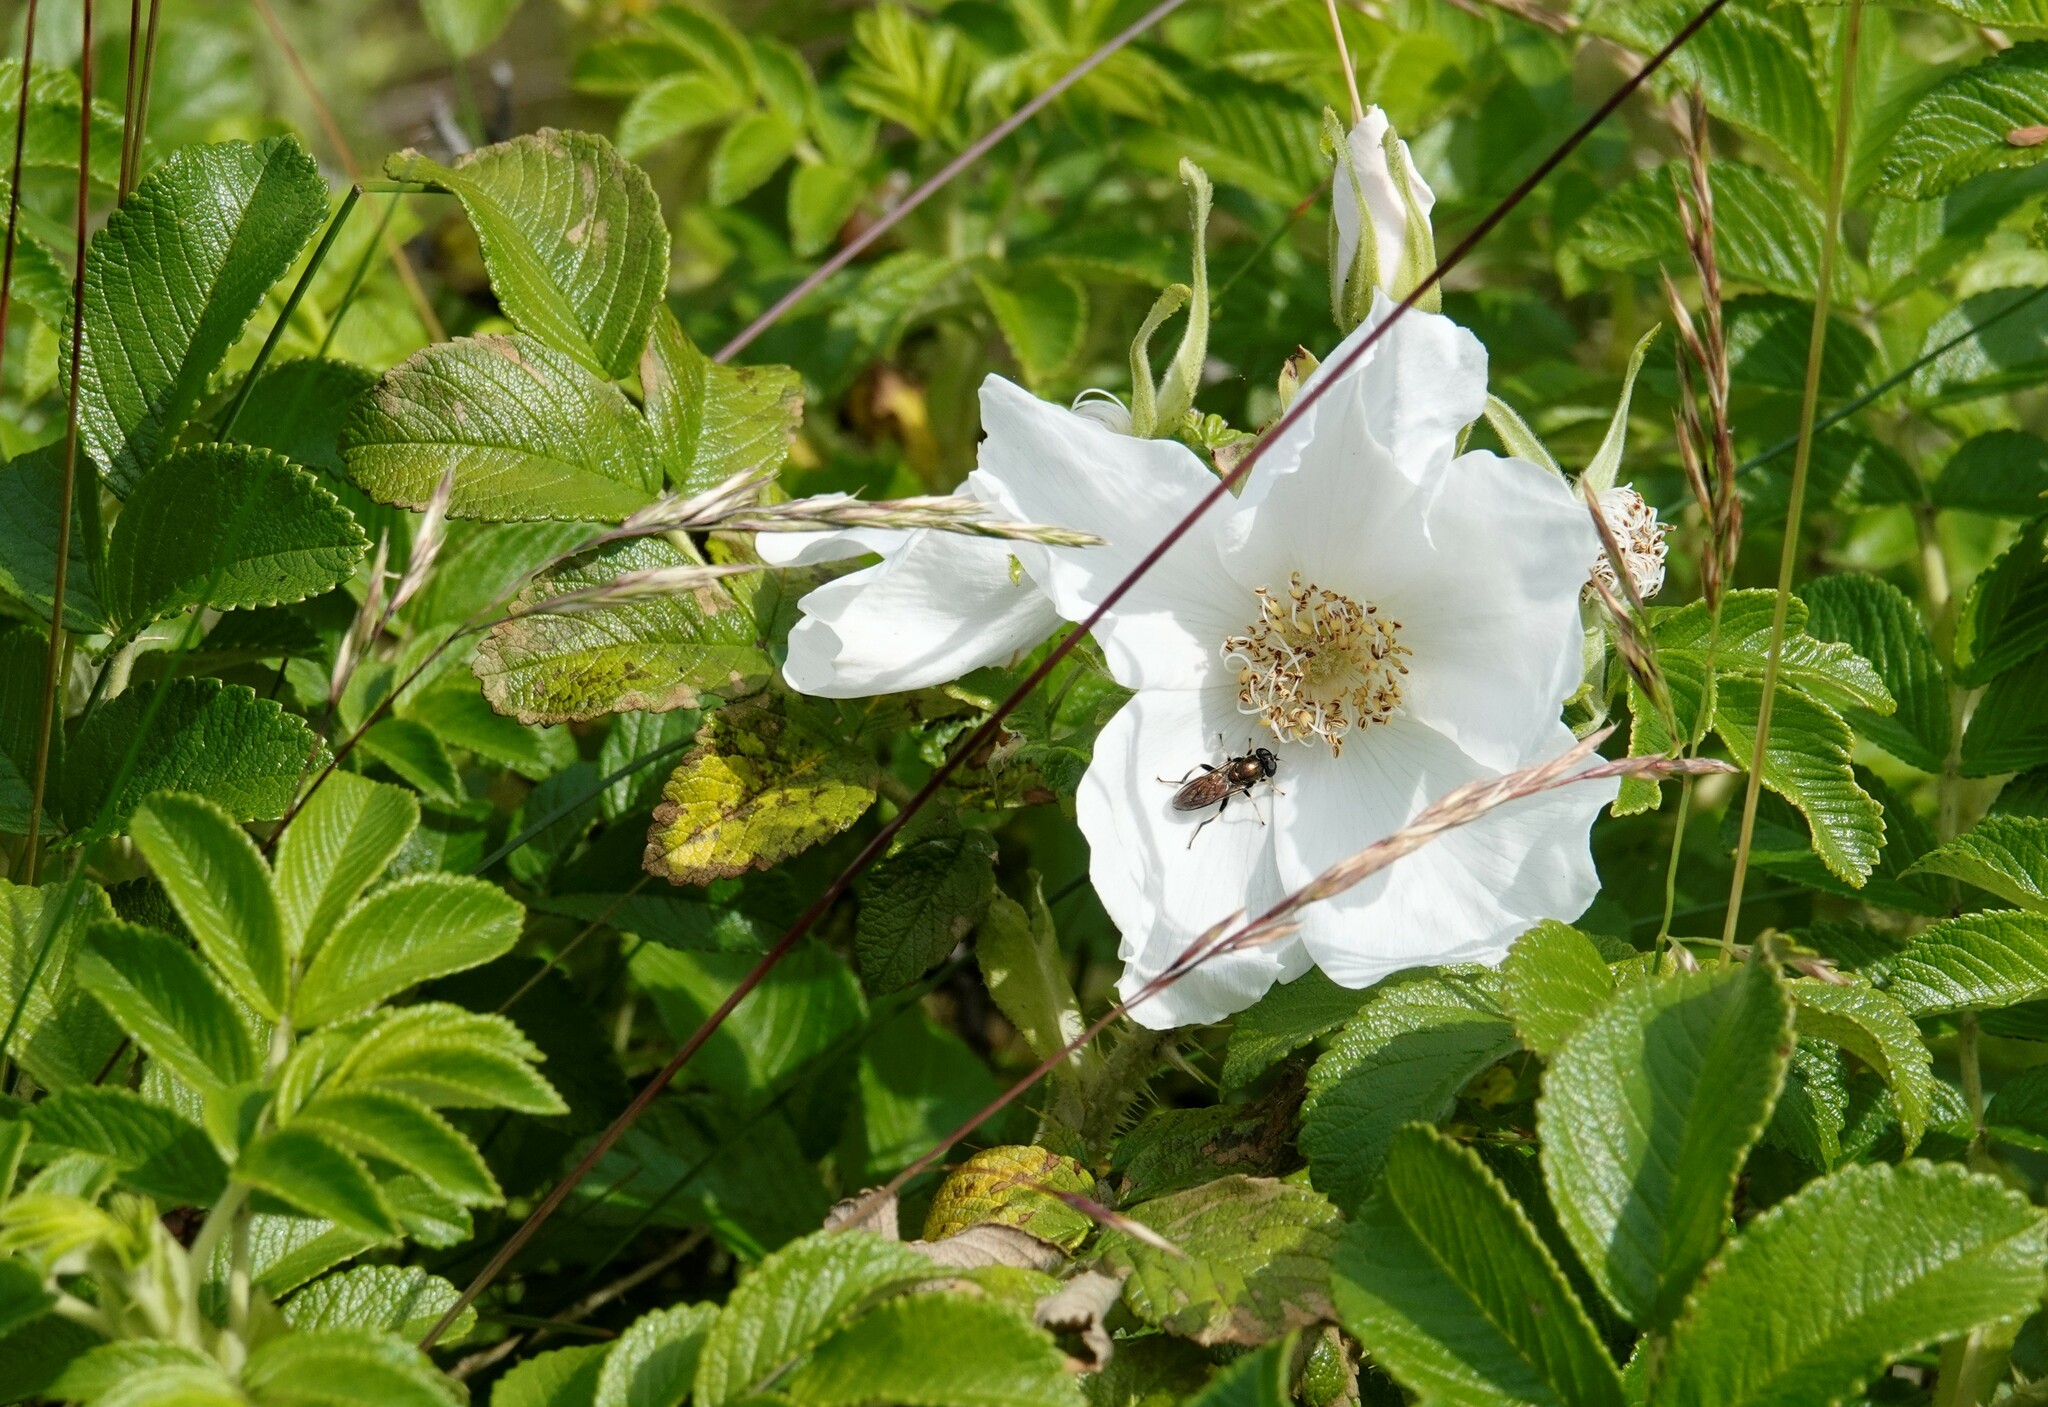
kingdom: Plantae
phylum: Tracheophyta
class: Magnoliopsida
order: Rosales
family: Rosaceae
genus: Rosa
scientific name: Rosa rugosa
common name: Japanese rose
